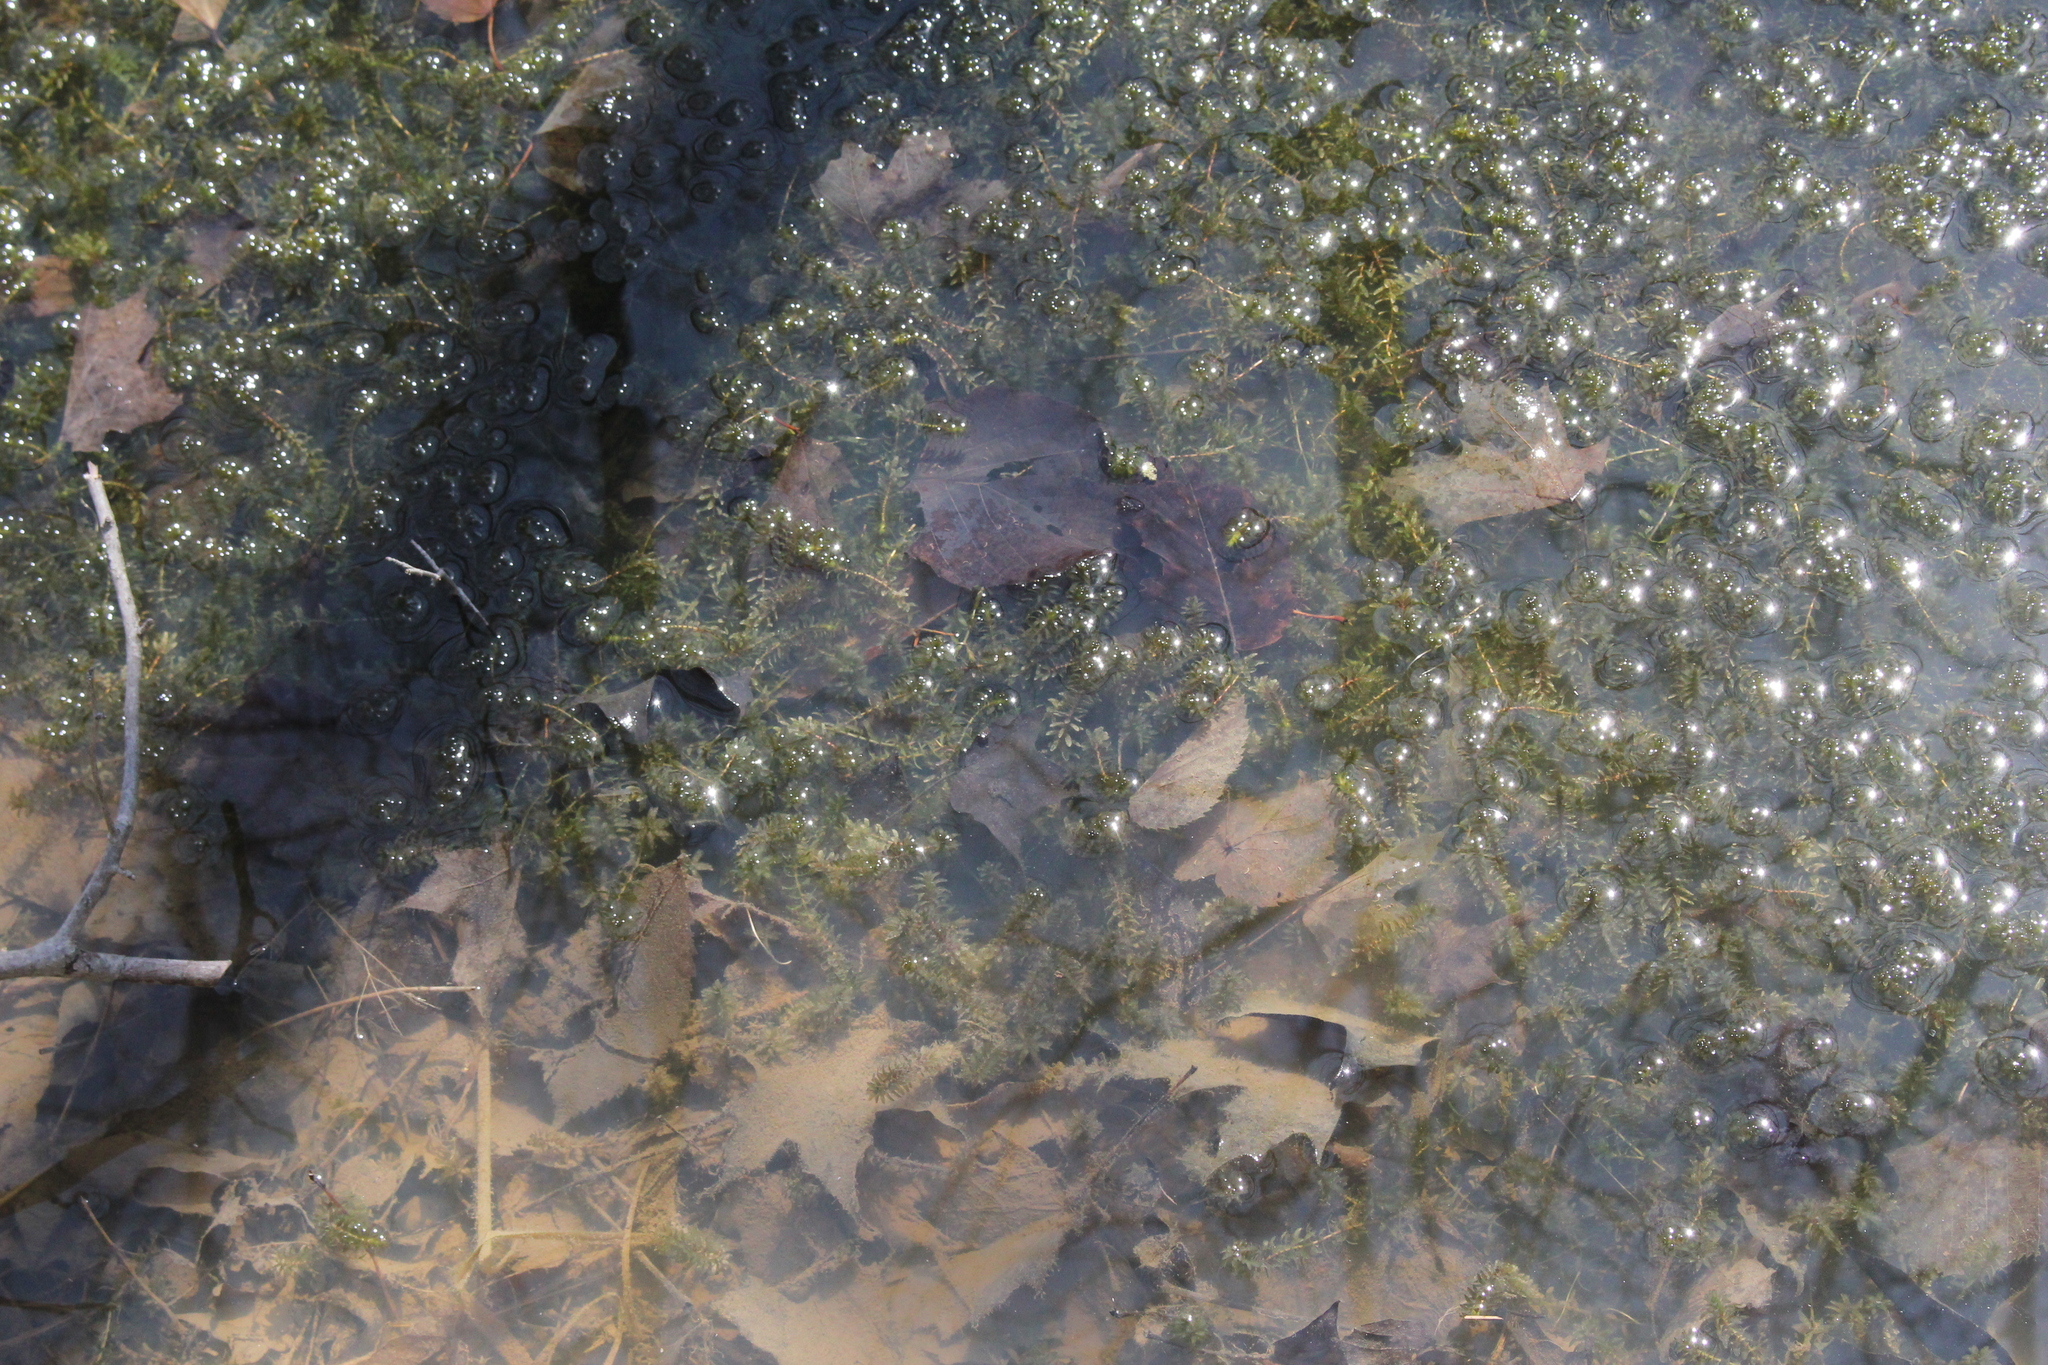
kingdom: Plantae
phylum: Tracheophyta
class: Liliopsida
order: Alismatales
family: Hydrocharitaceae
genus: Elodea
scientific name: Elodea canadensis
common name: Canadian waterweed
